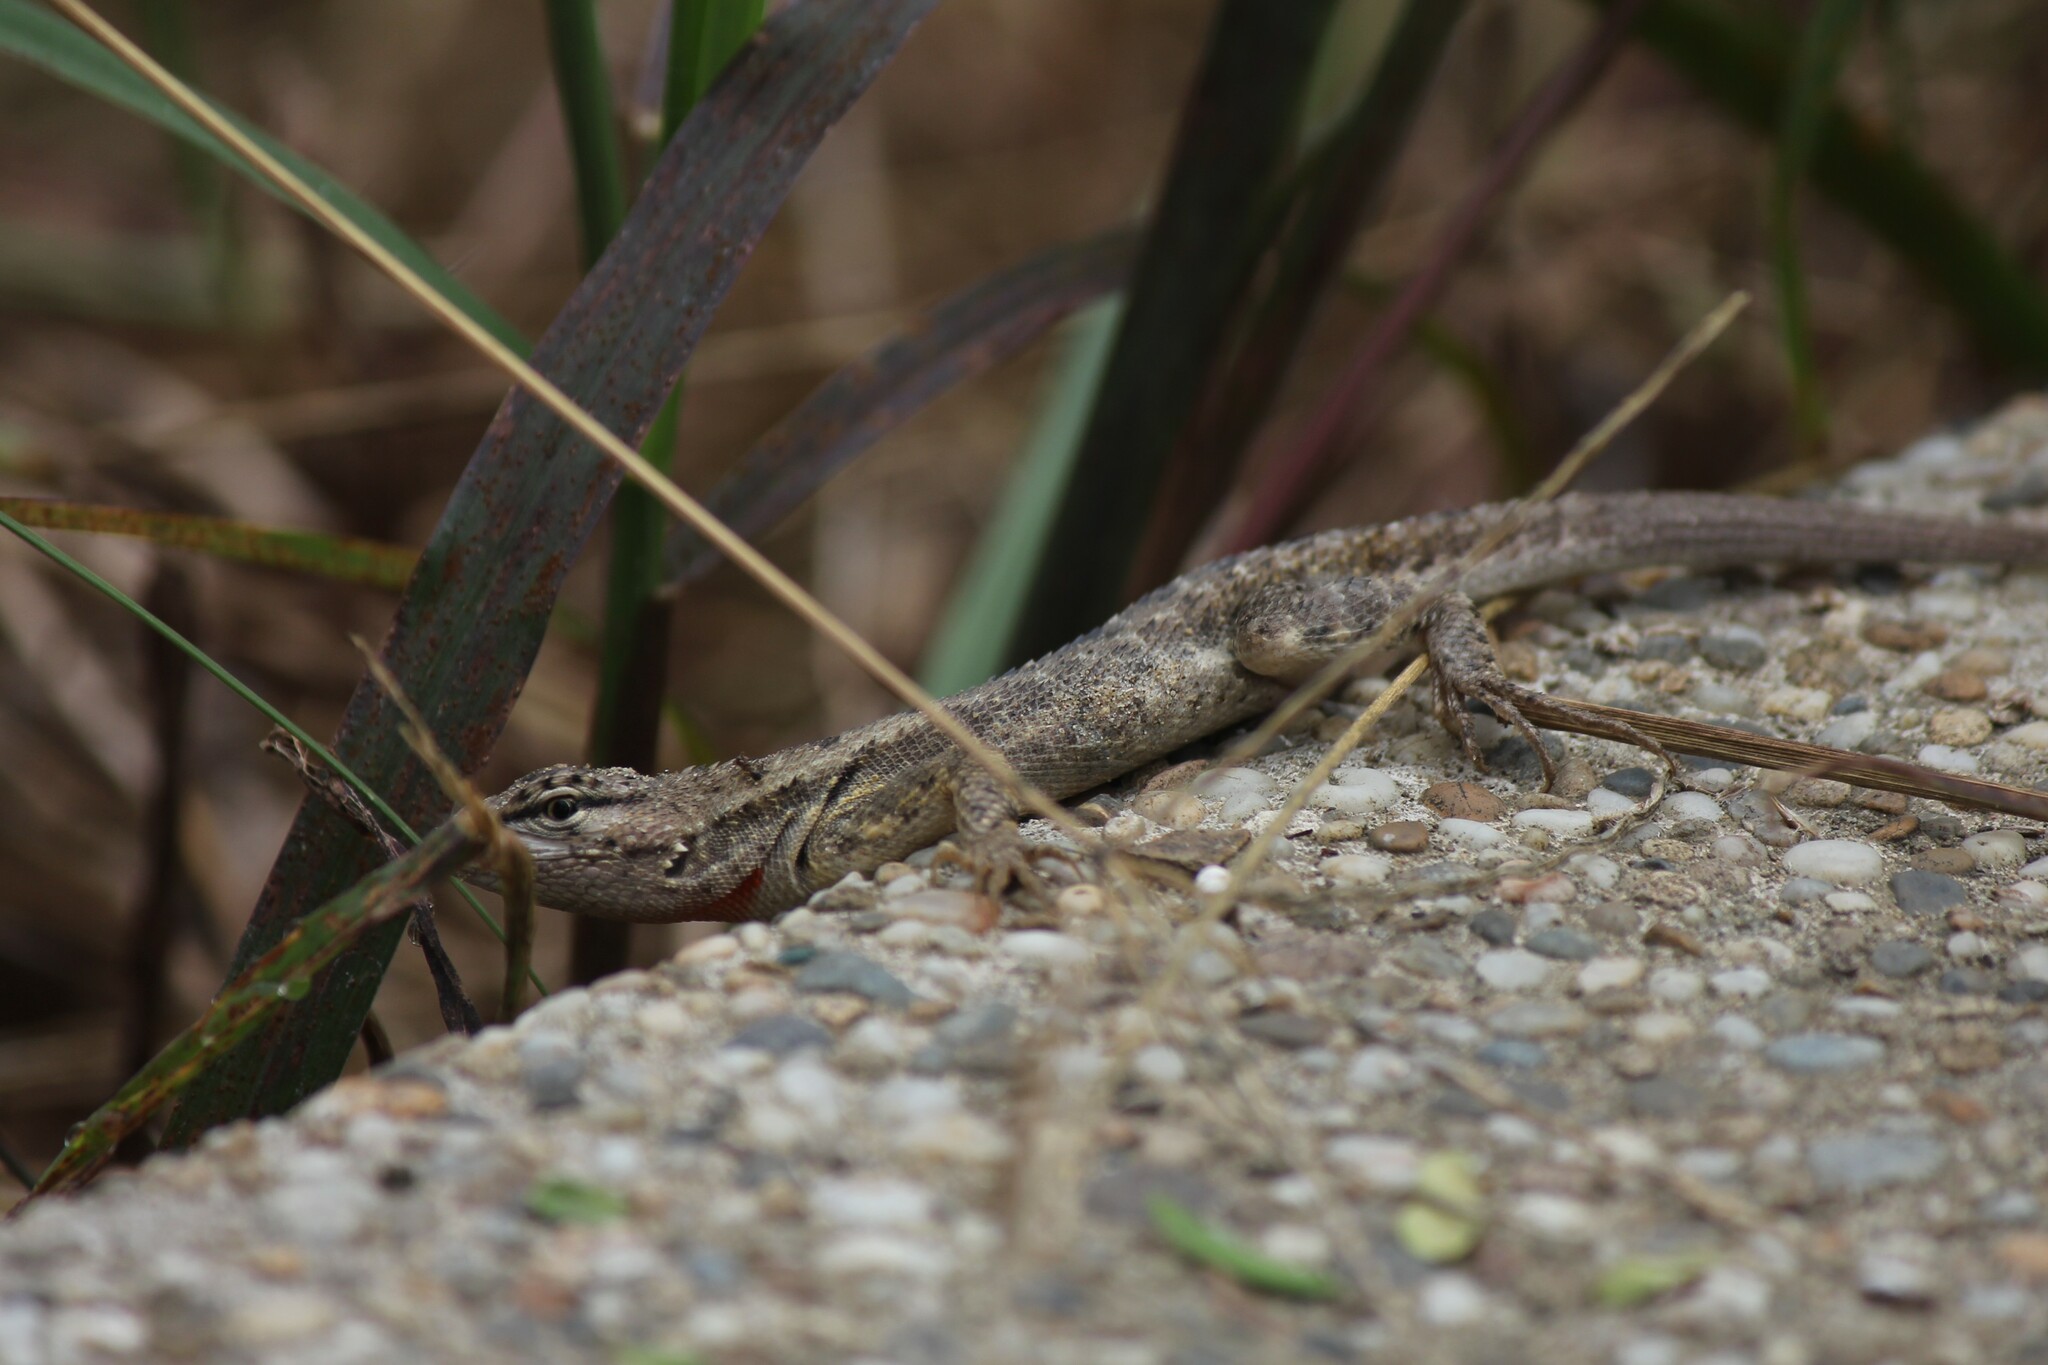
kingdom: Animalia
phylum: Chordata
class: Squamata
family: Tropiduridae
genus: Microlophus
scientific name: Microlophus occipitalis
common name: Knobbed pacific iguana
